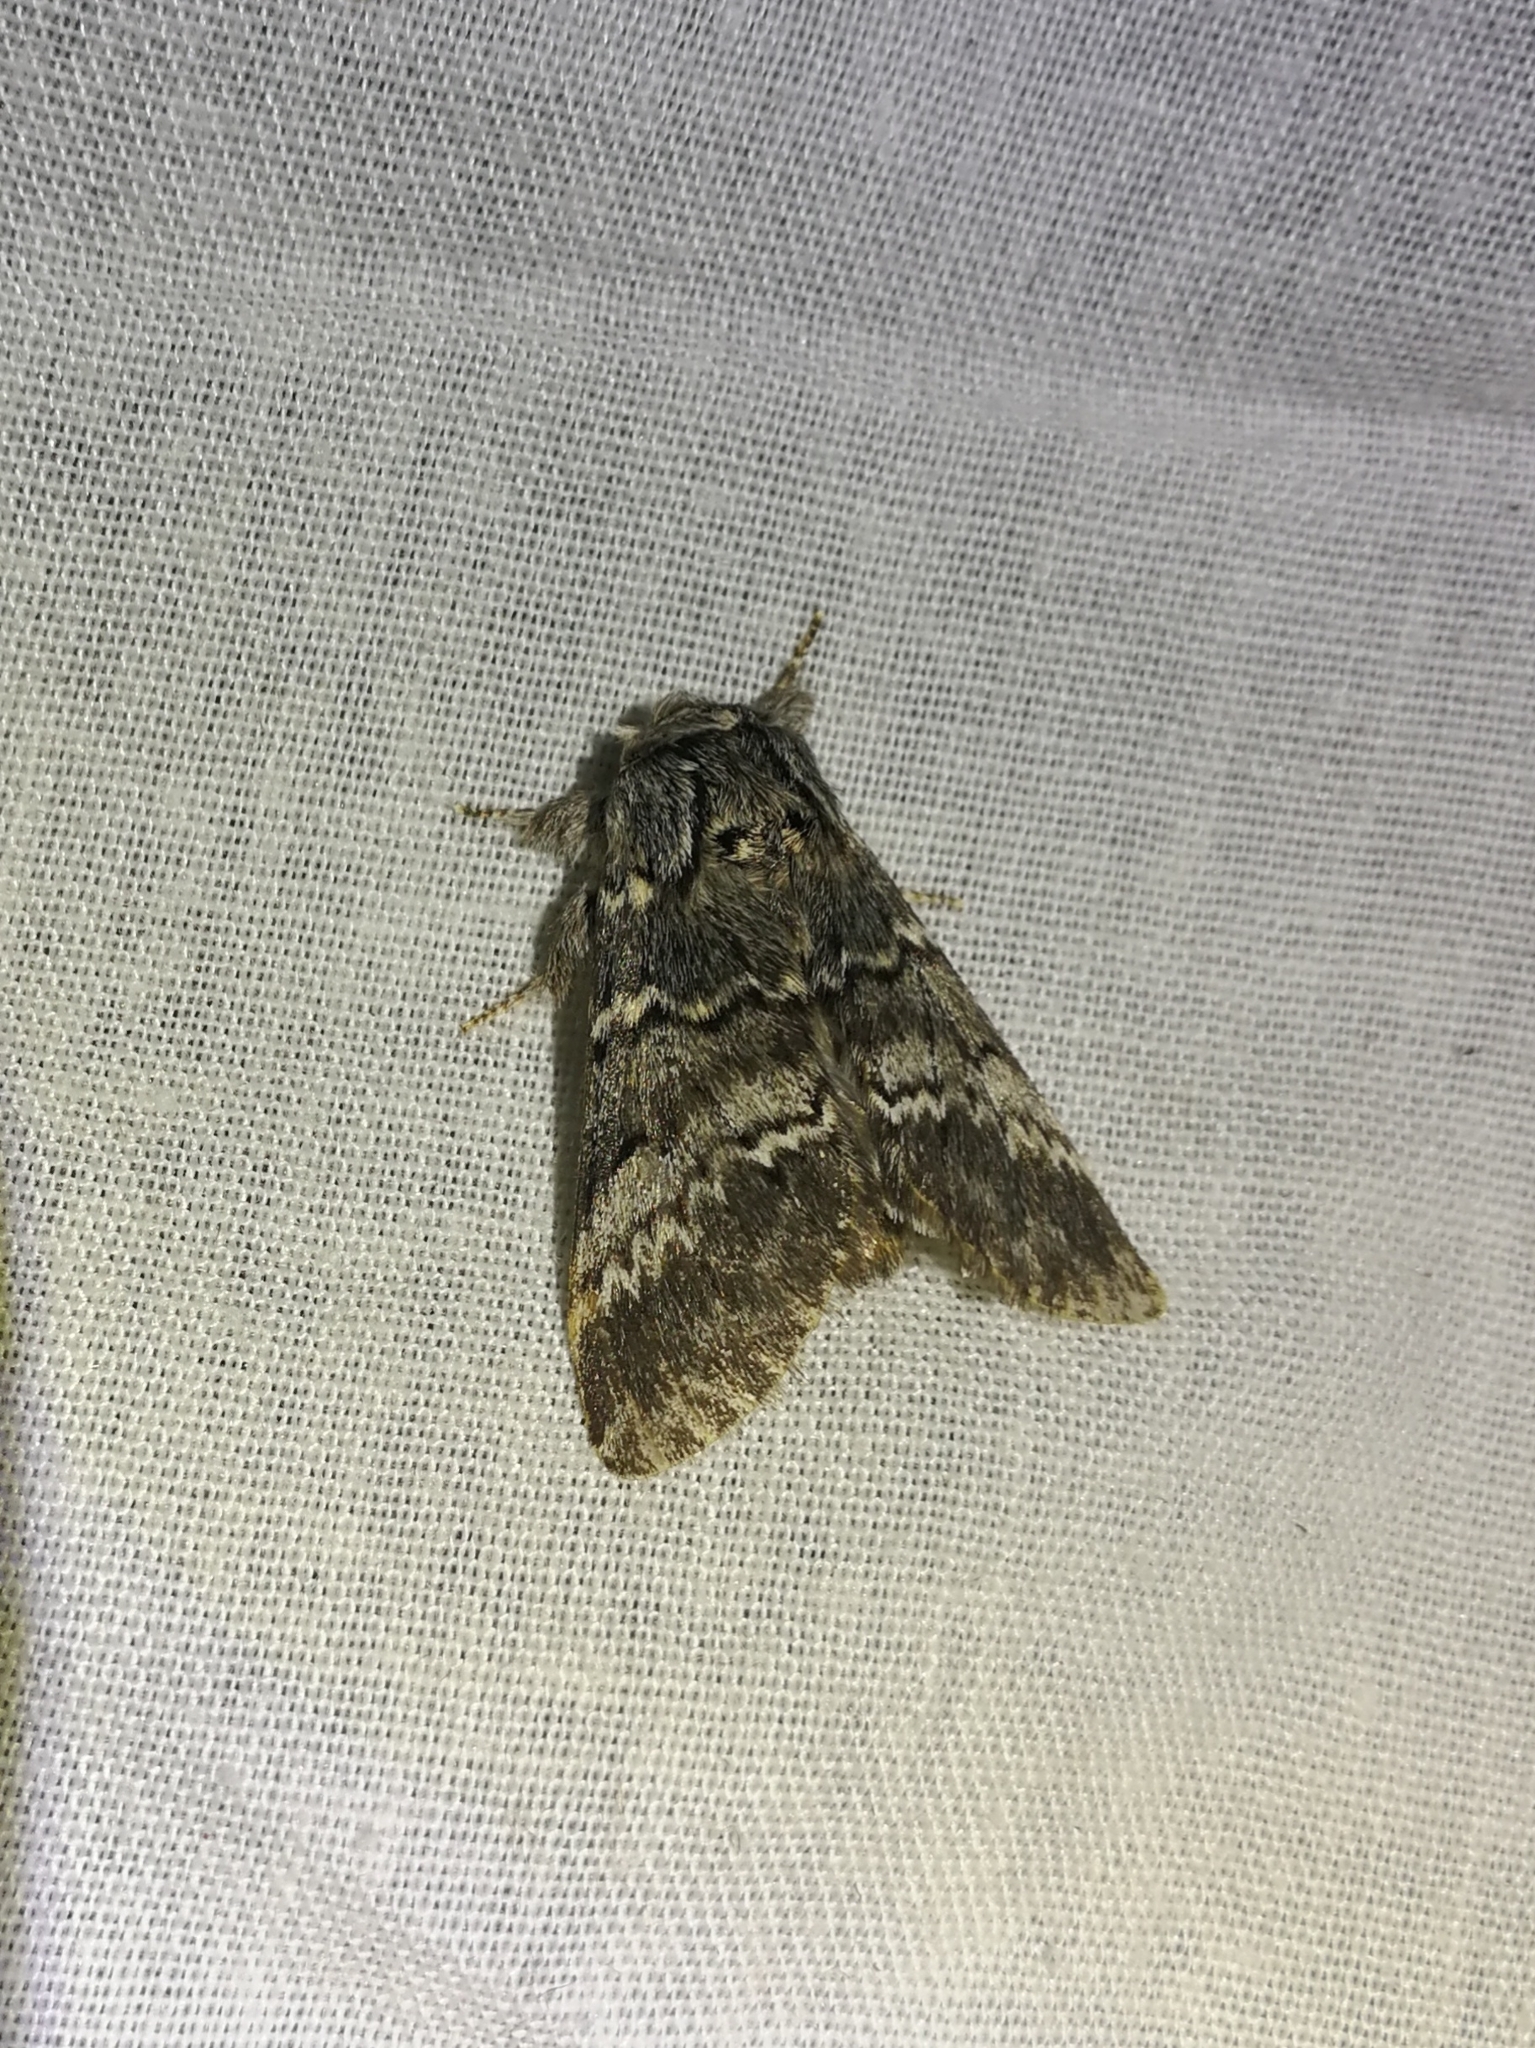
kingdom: Animalia
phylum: Arthropoda
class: Insecta
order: Lepidoptera
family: Notodontidae
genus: Drymonia
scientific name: Drymonia ruficornis
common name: Lunar marbled brown
